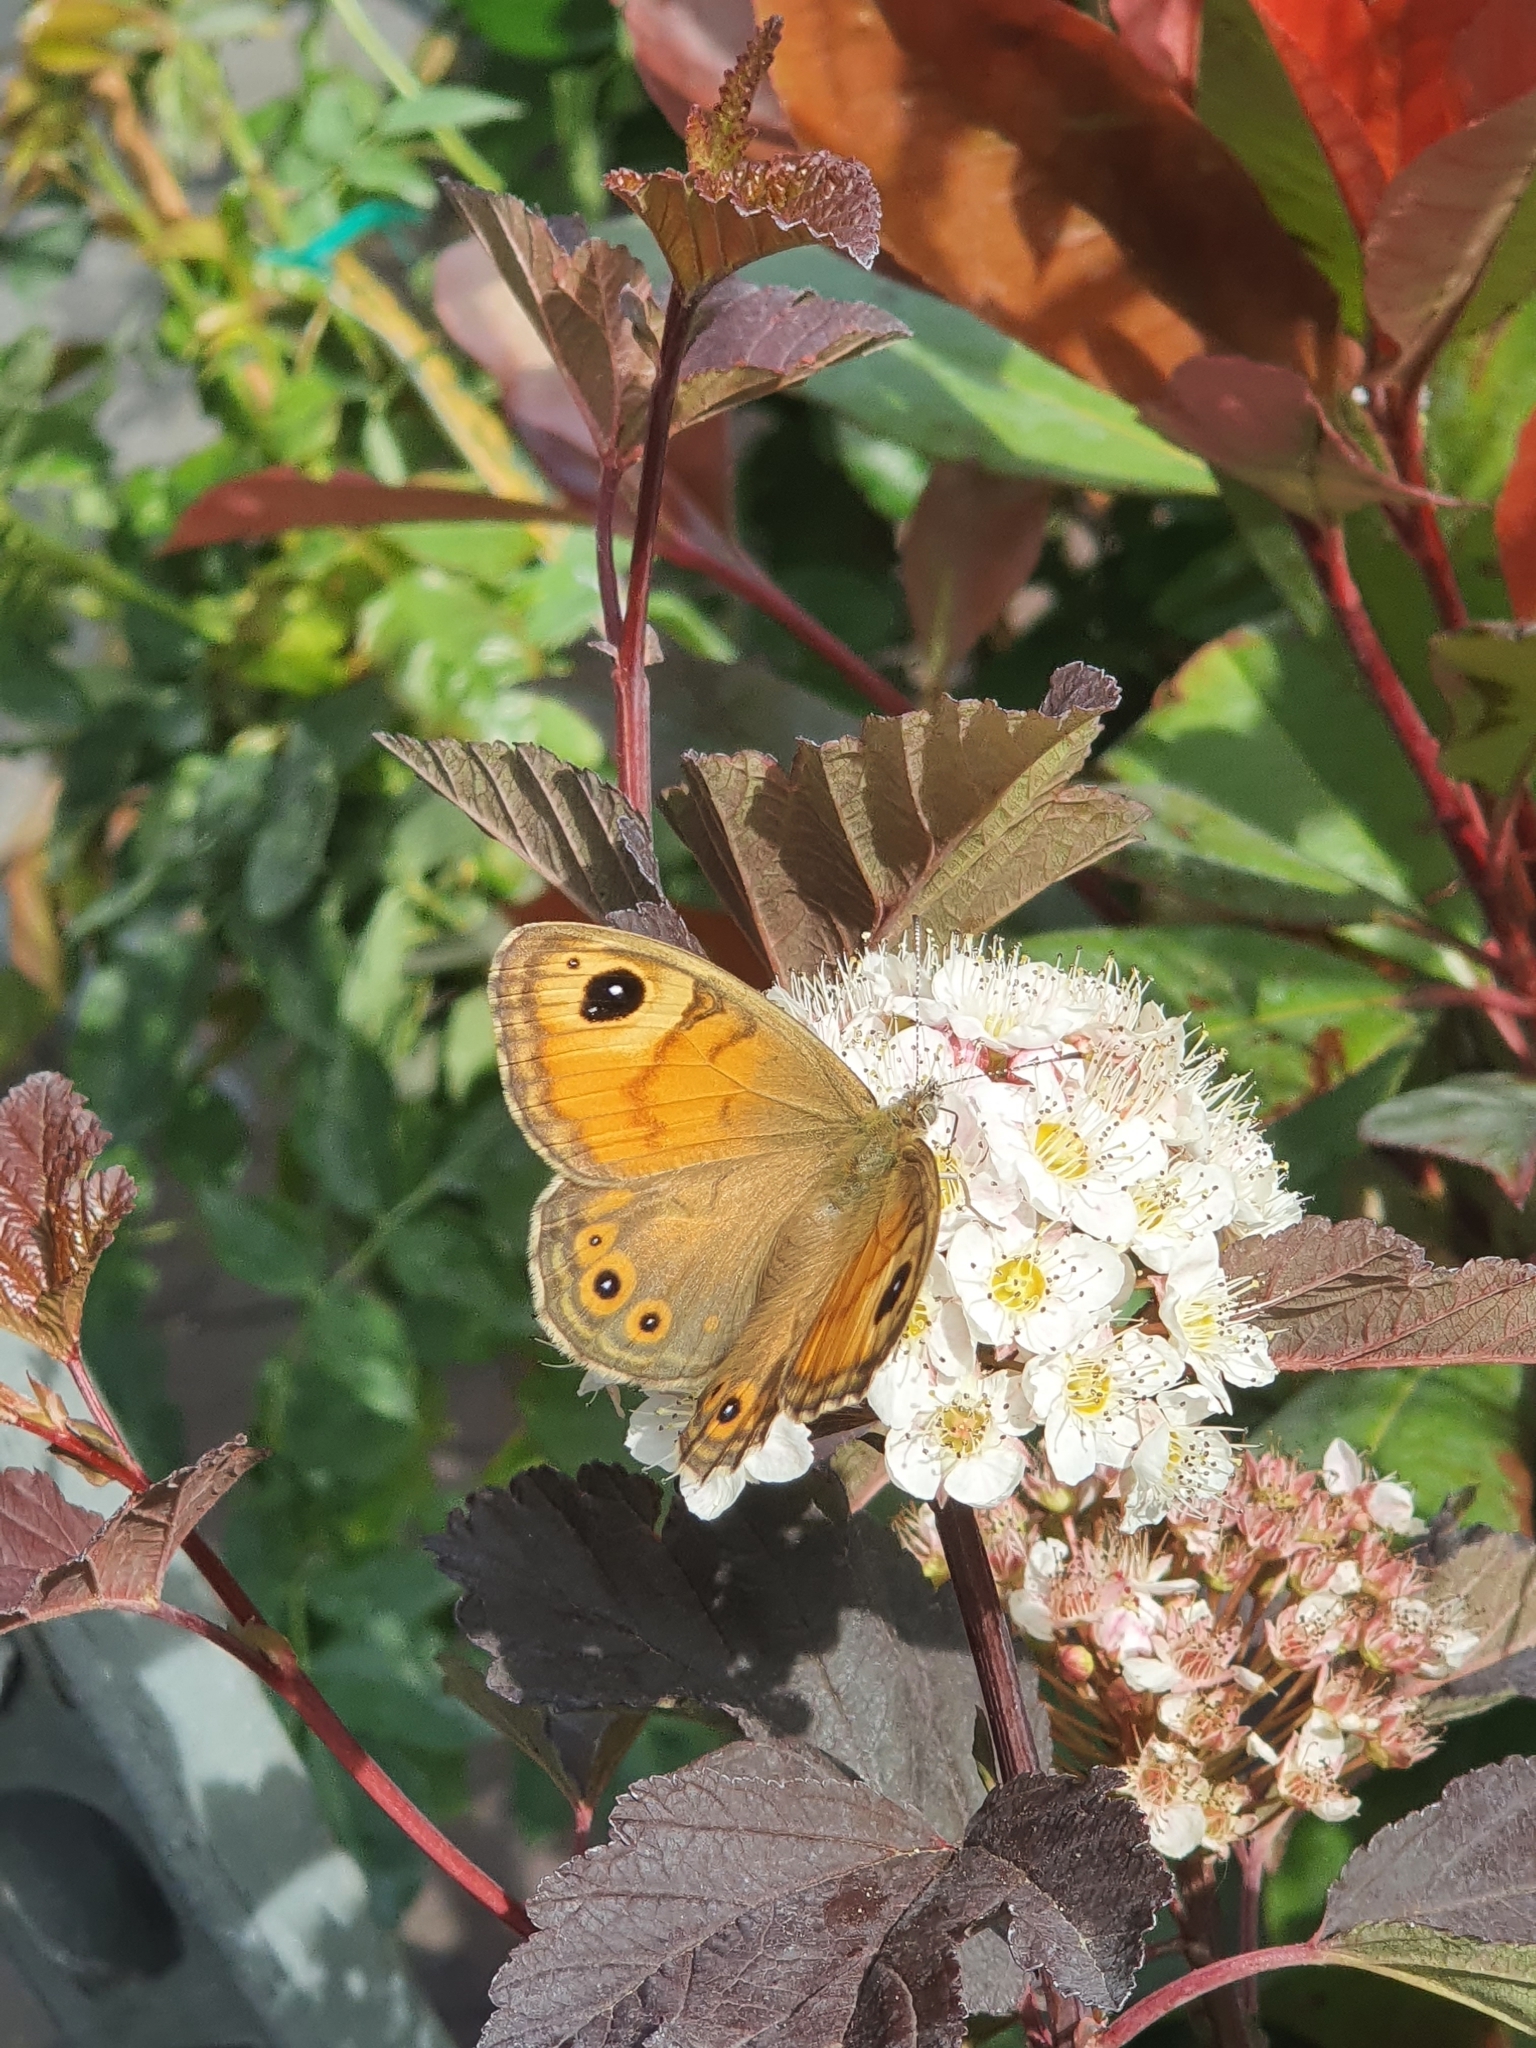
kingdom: Animalia
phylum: Arthropoda
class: Insecta
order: Lepidoptera
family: Nymphalidae
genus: Pararge
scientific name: Pararge Lasiommata maera
